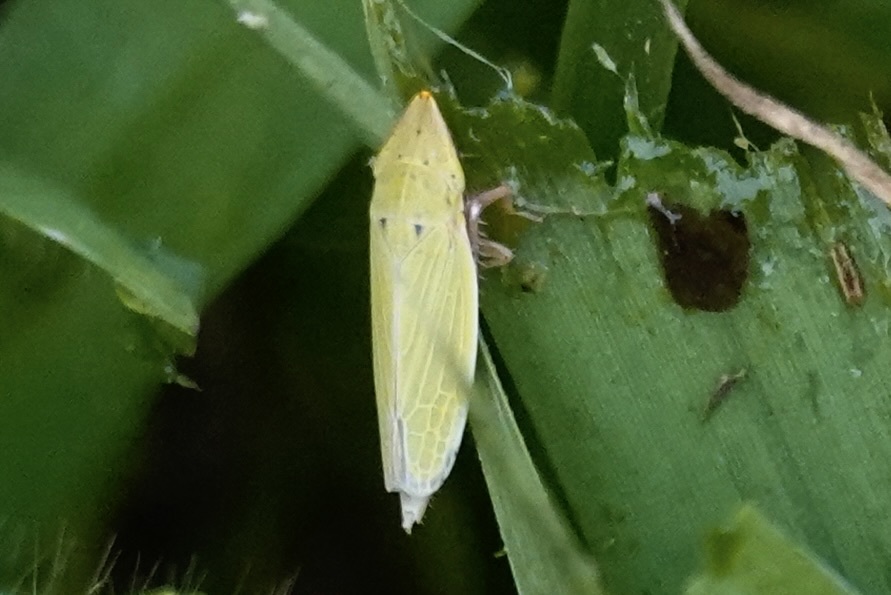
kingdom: Animalia
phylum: Arthropoda
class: Insecta
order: Hemiptera
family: Cicadellidae
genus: Draeculacephala
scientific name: Draeculacephala balli
